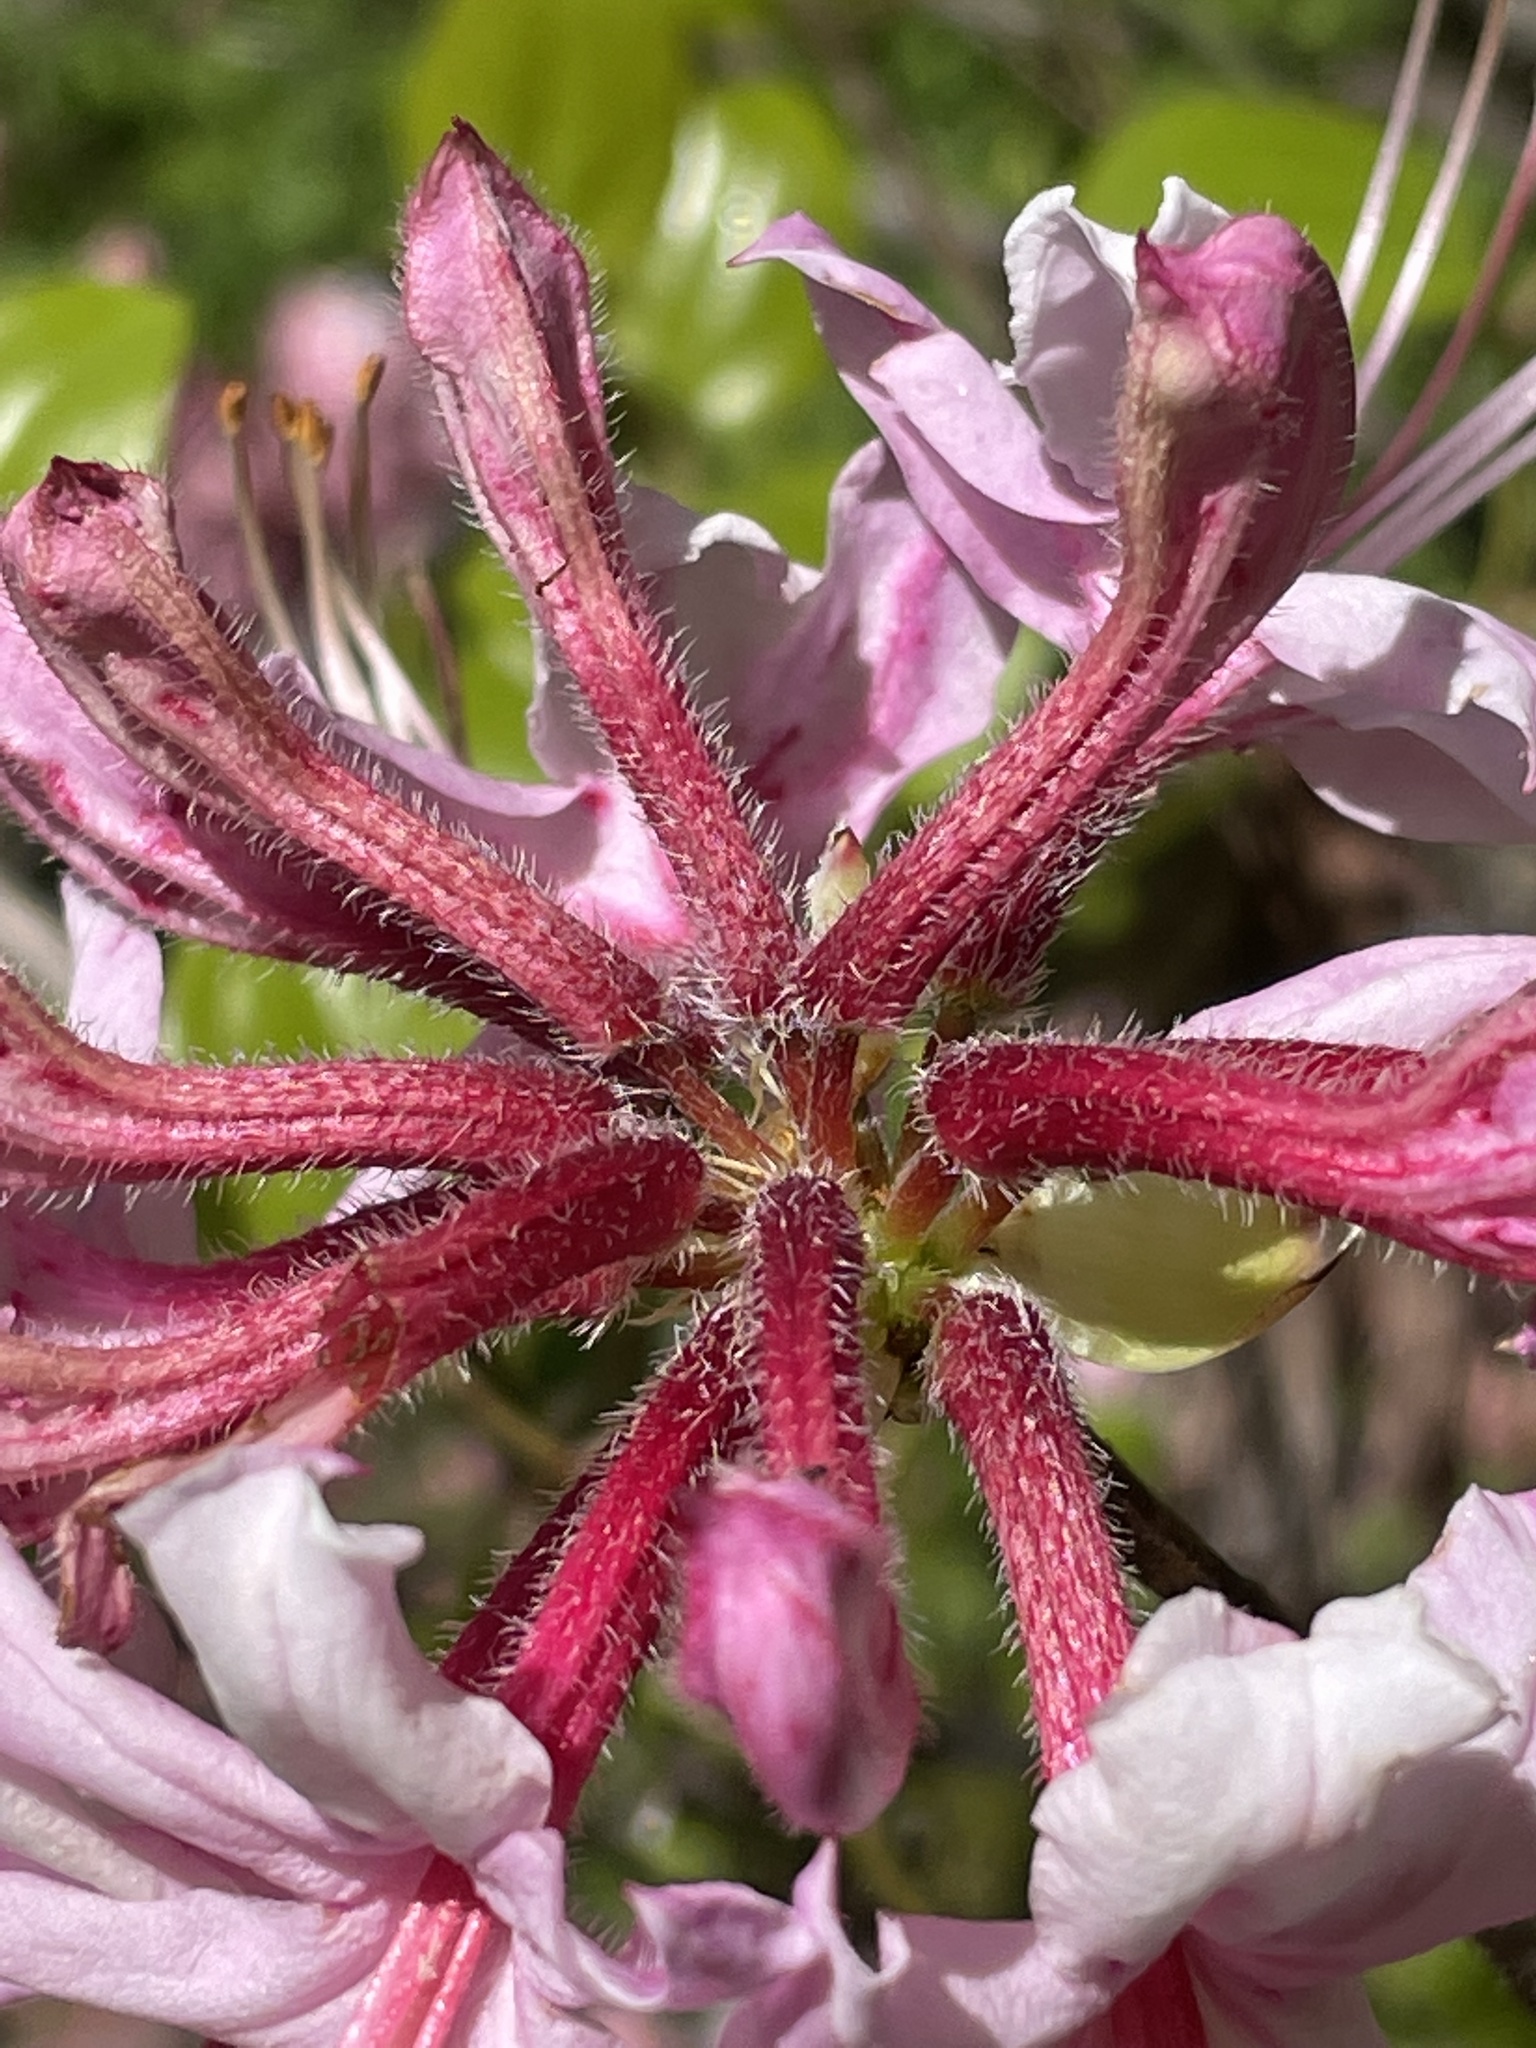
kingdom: Plantae
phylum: Tracheophyta
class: Magnoliopsida
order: Ericales
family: Ericaceae
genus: Rhododendron
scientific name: Rhododendron periclymenoides
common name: Election-pink
